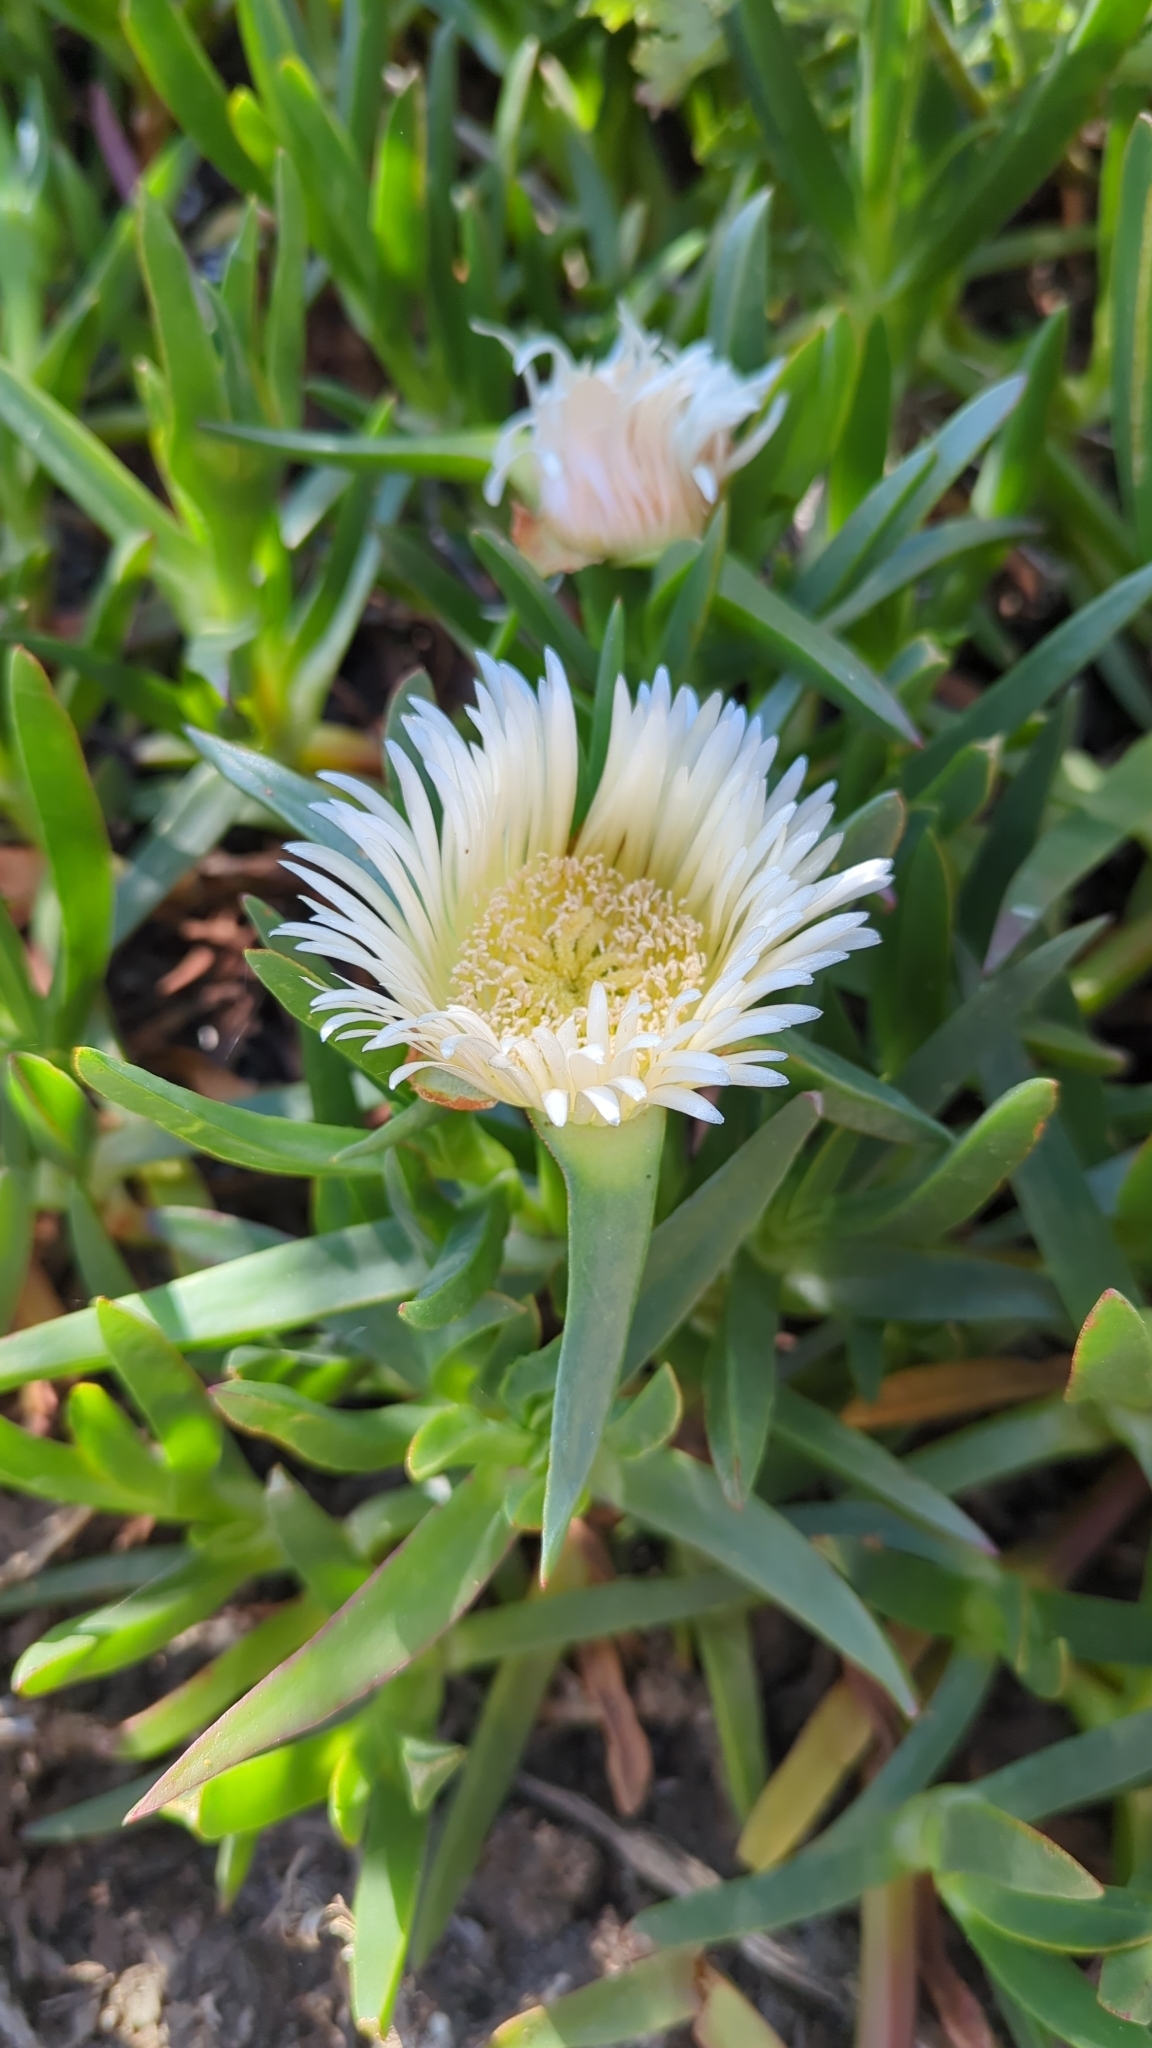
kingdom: Plantae
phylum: Tracheophyta
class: Magnoliopsida
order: Caryophyllales
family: Aizoaceae
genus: Carpobrotus
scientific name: Carpobrotus edulis
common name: Hottentot-fig
